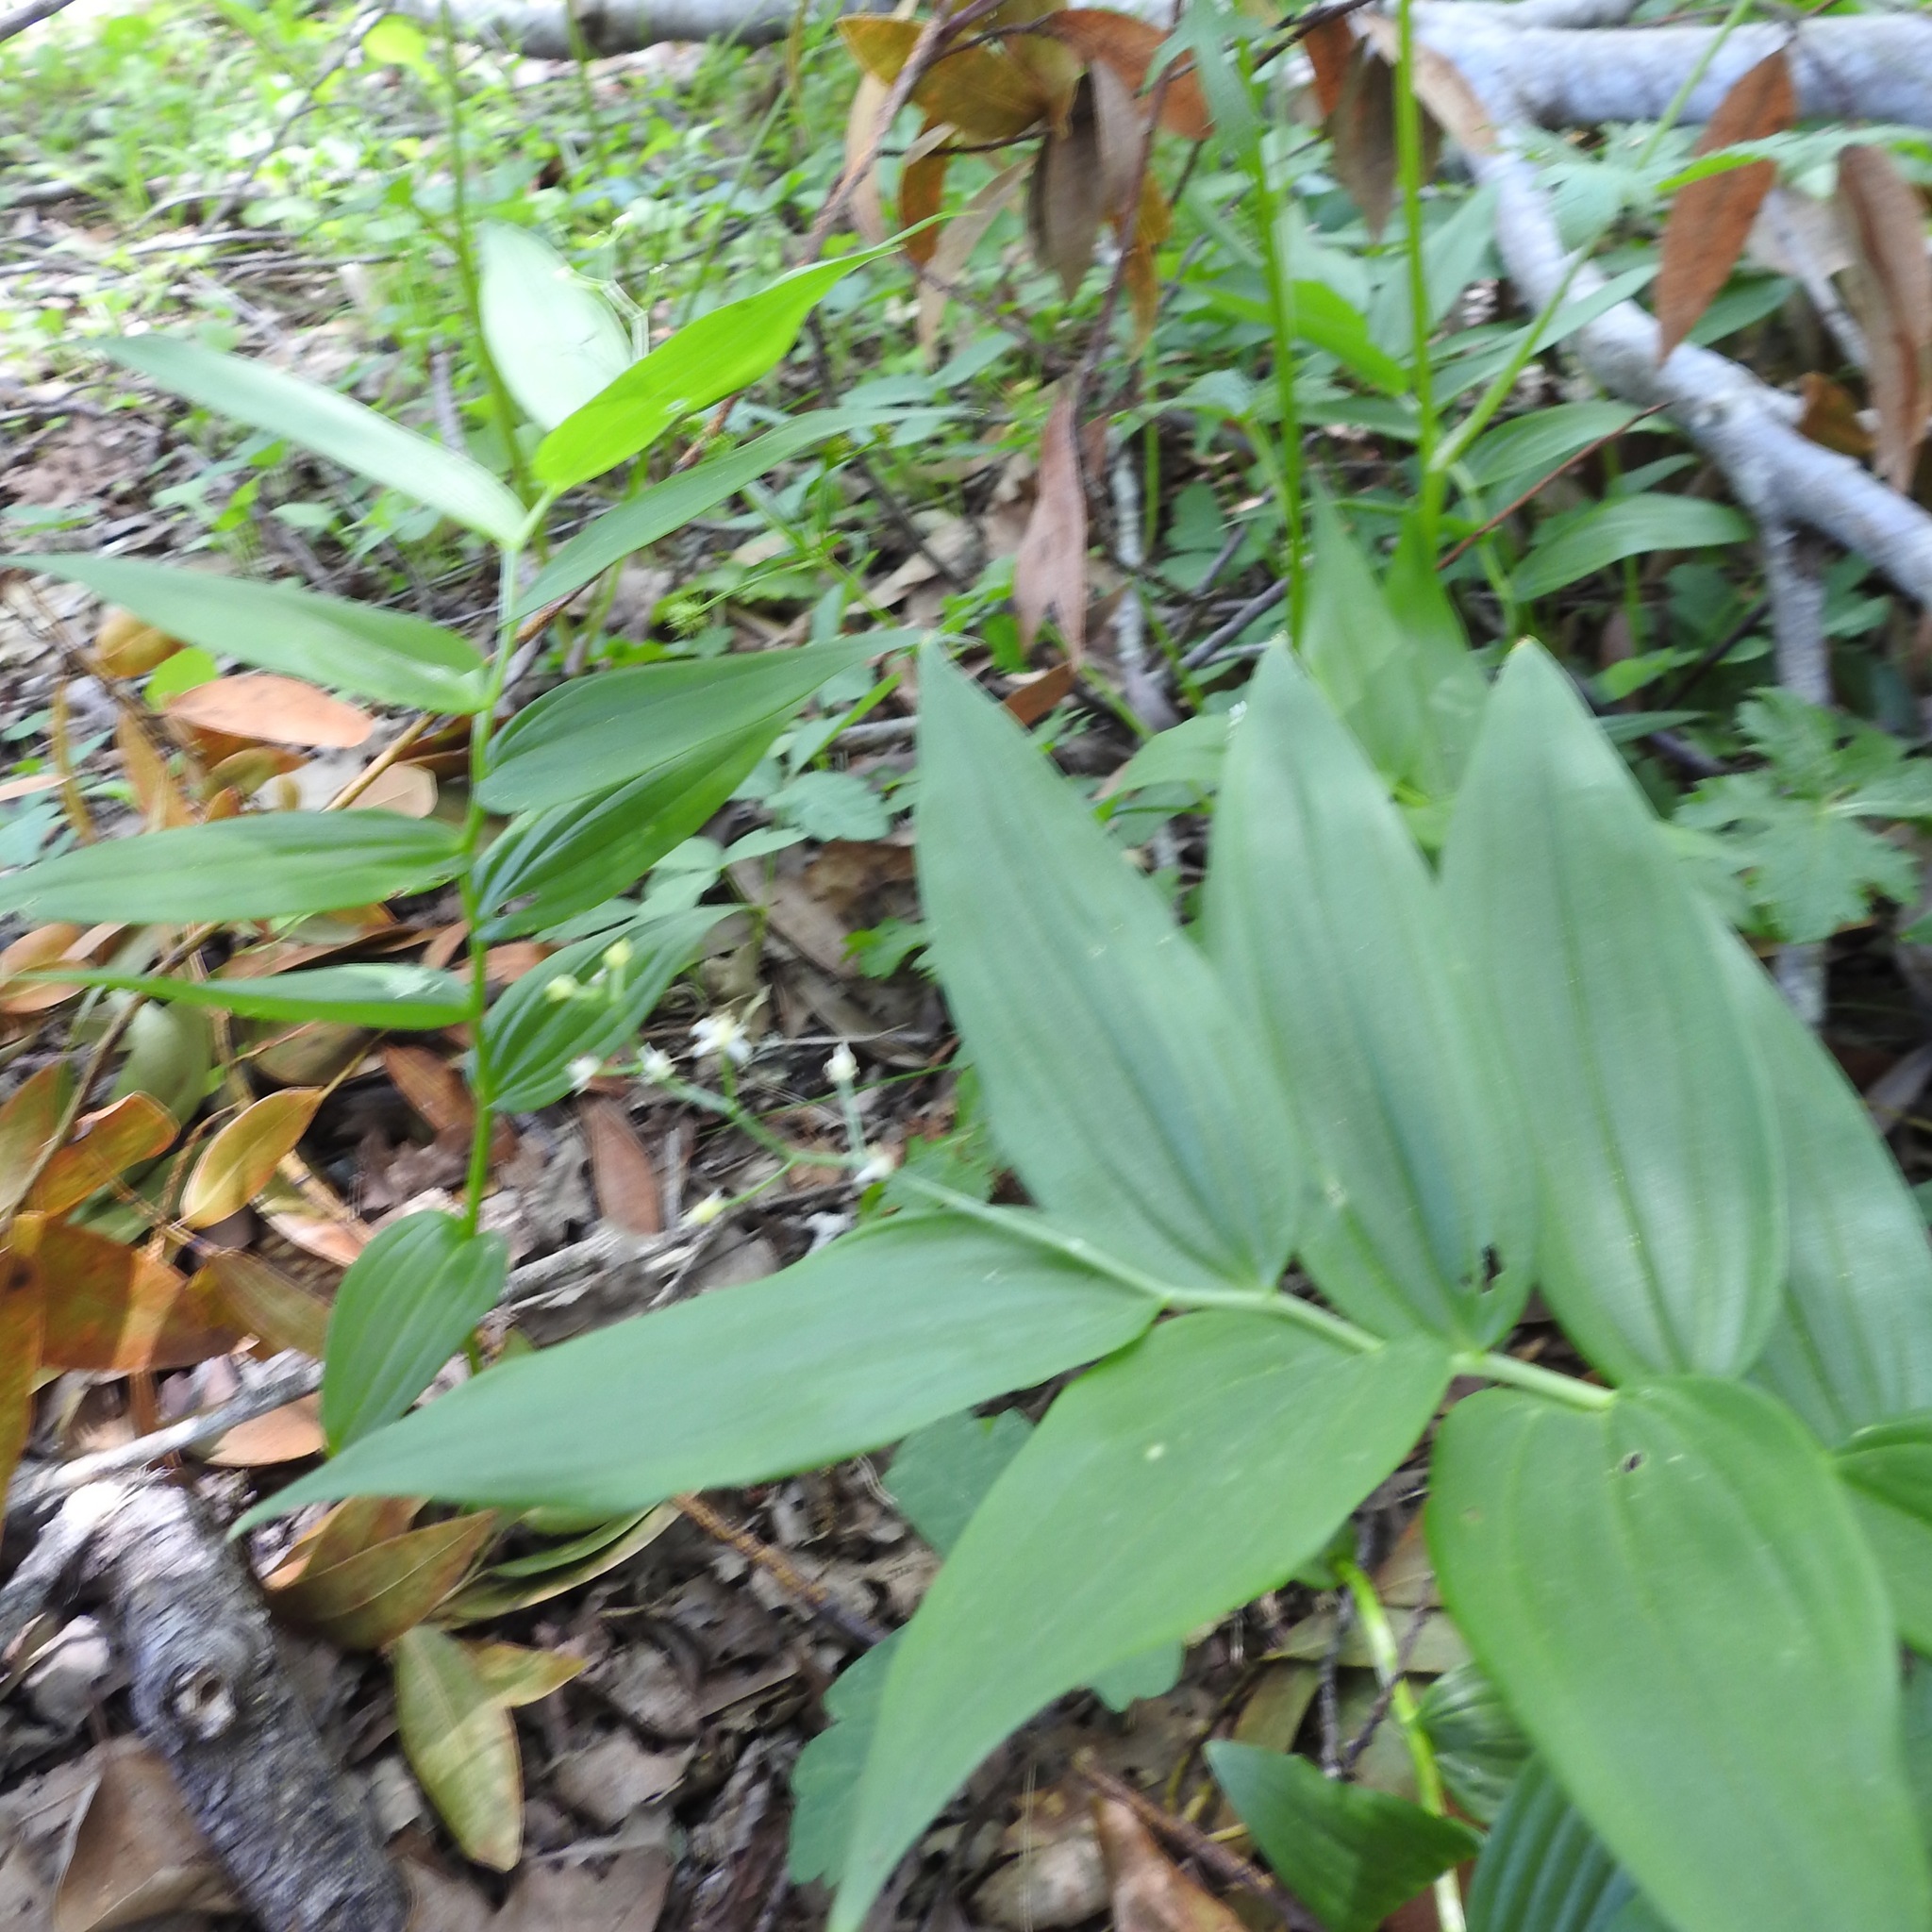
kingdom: Plantae
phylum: Tracheophyta
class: Liliopsida
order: Asparagales
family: Asparagaceae
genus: Maianthemum
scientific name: Maianthemum stellatum
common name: Little false solomon's seal
